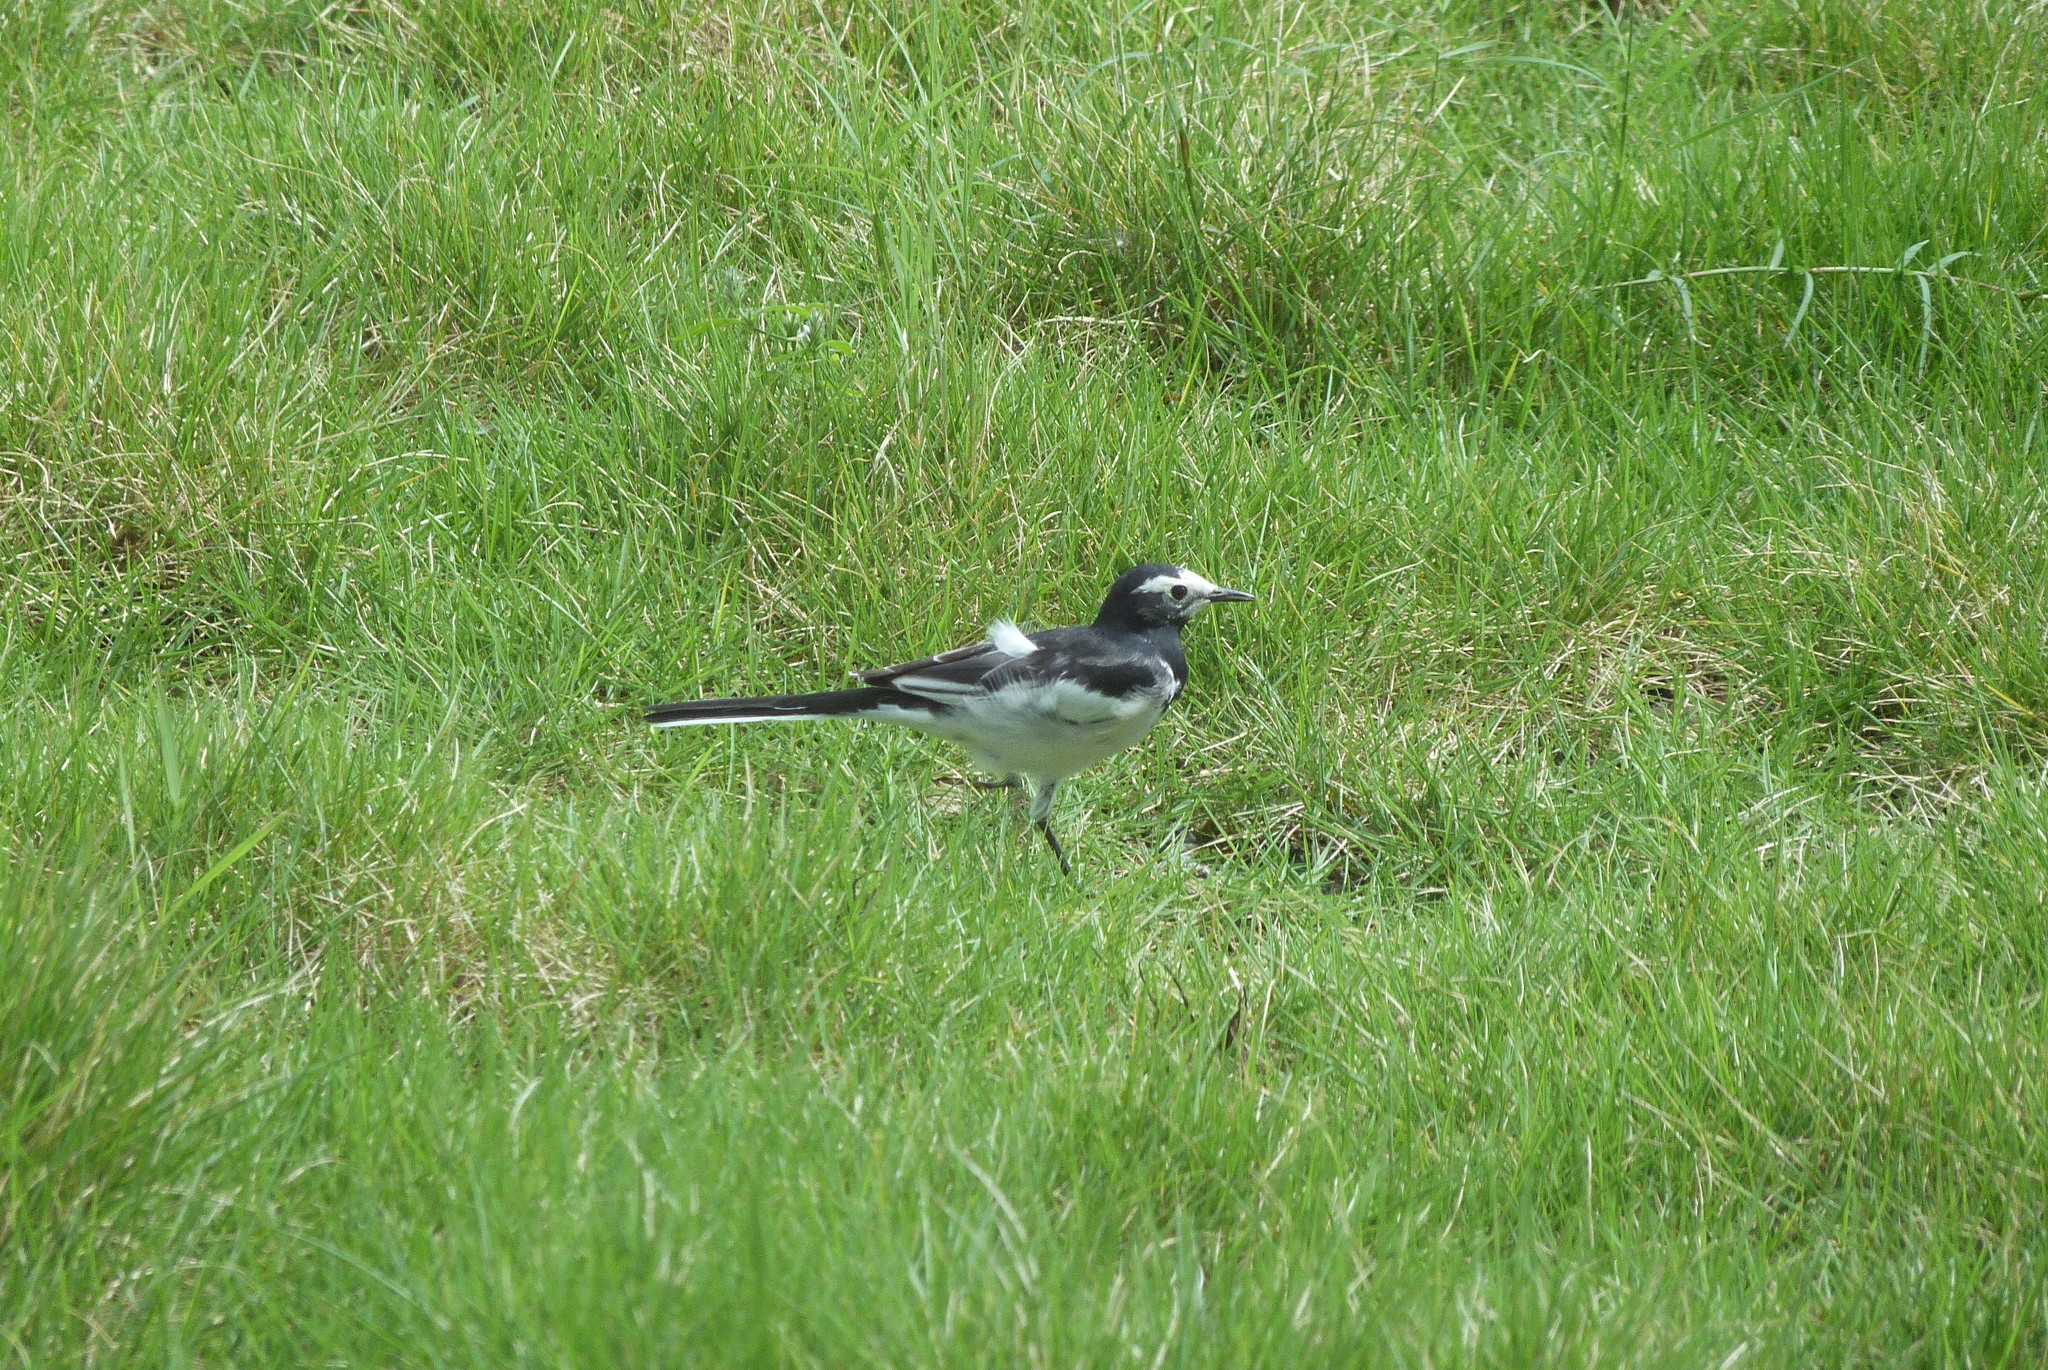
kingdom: Animalia
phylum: Chordata
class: Aves
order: Passeriformes
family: Motacillidae
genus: Motacilla
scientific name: Motacilla alba
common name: White wagtail
